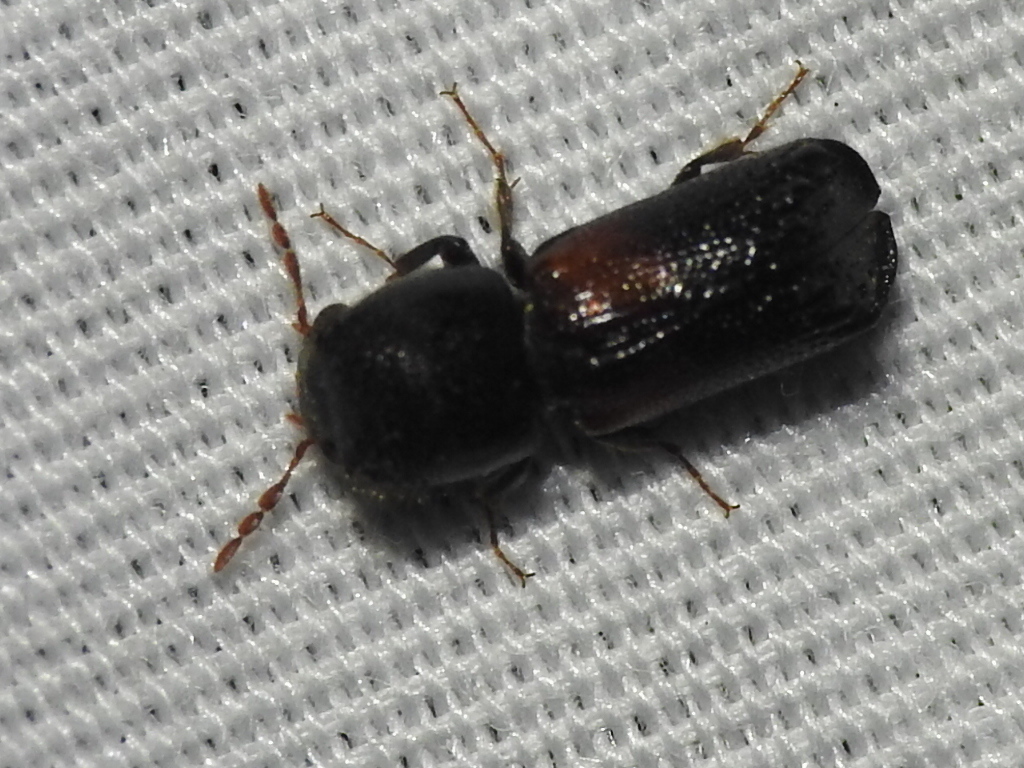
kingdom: Animalia
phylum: Arthropoda
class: Insecta
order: Coleoptera
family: Bostrichidae
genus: Xylobiops
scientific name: Xylobiops basilaris
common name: Red-shouldered bostrichid
